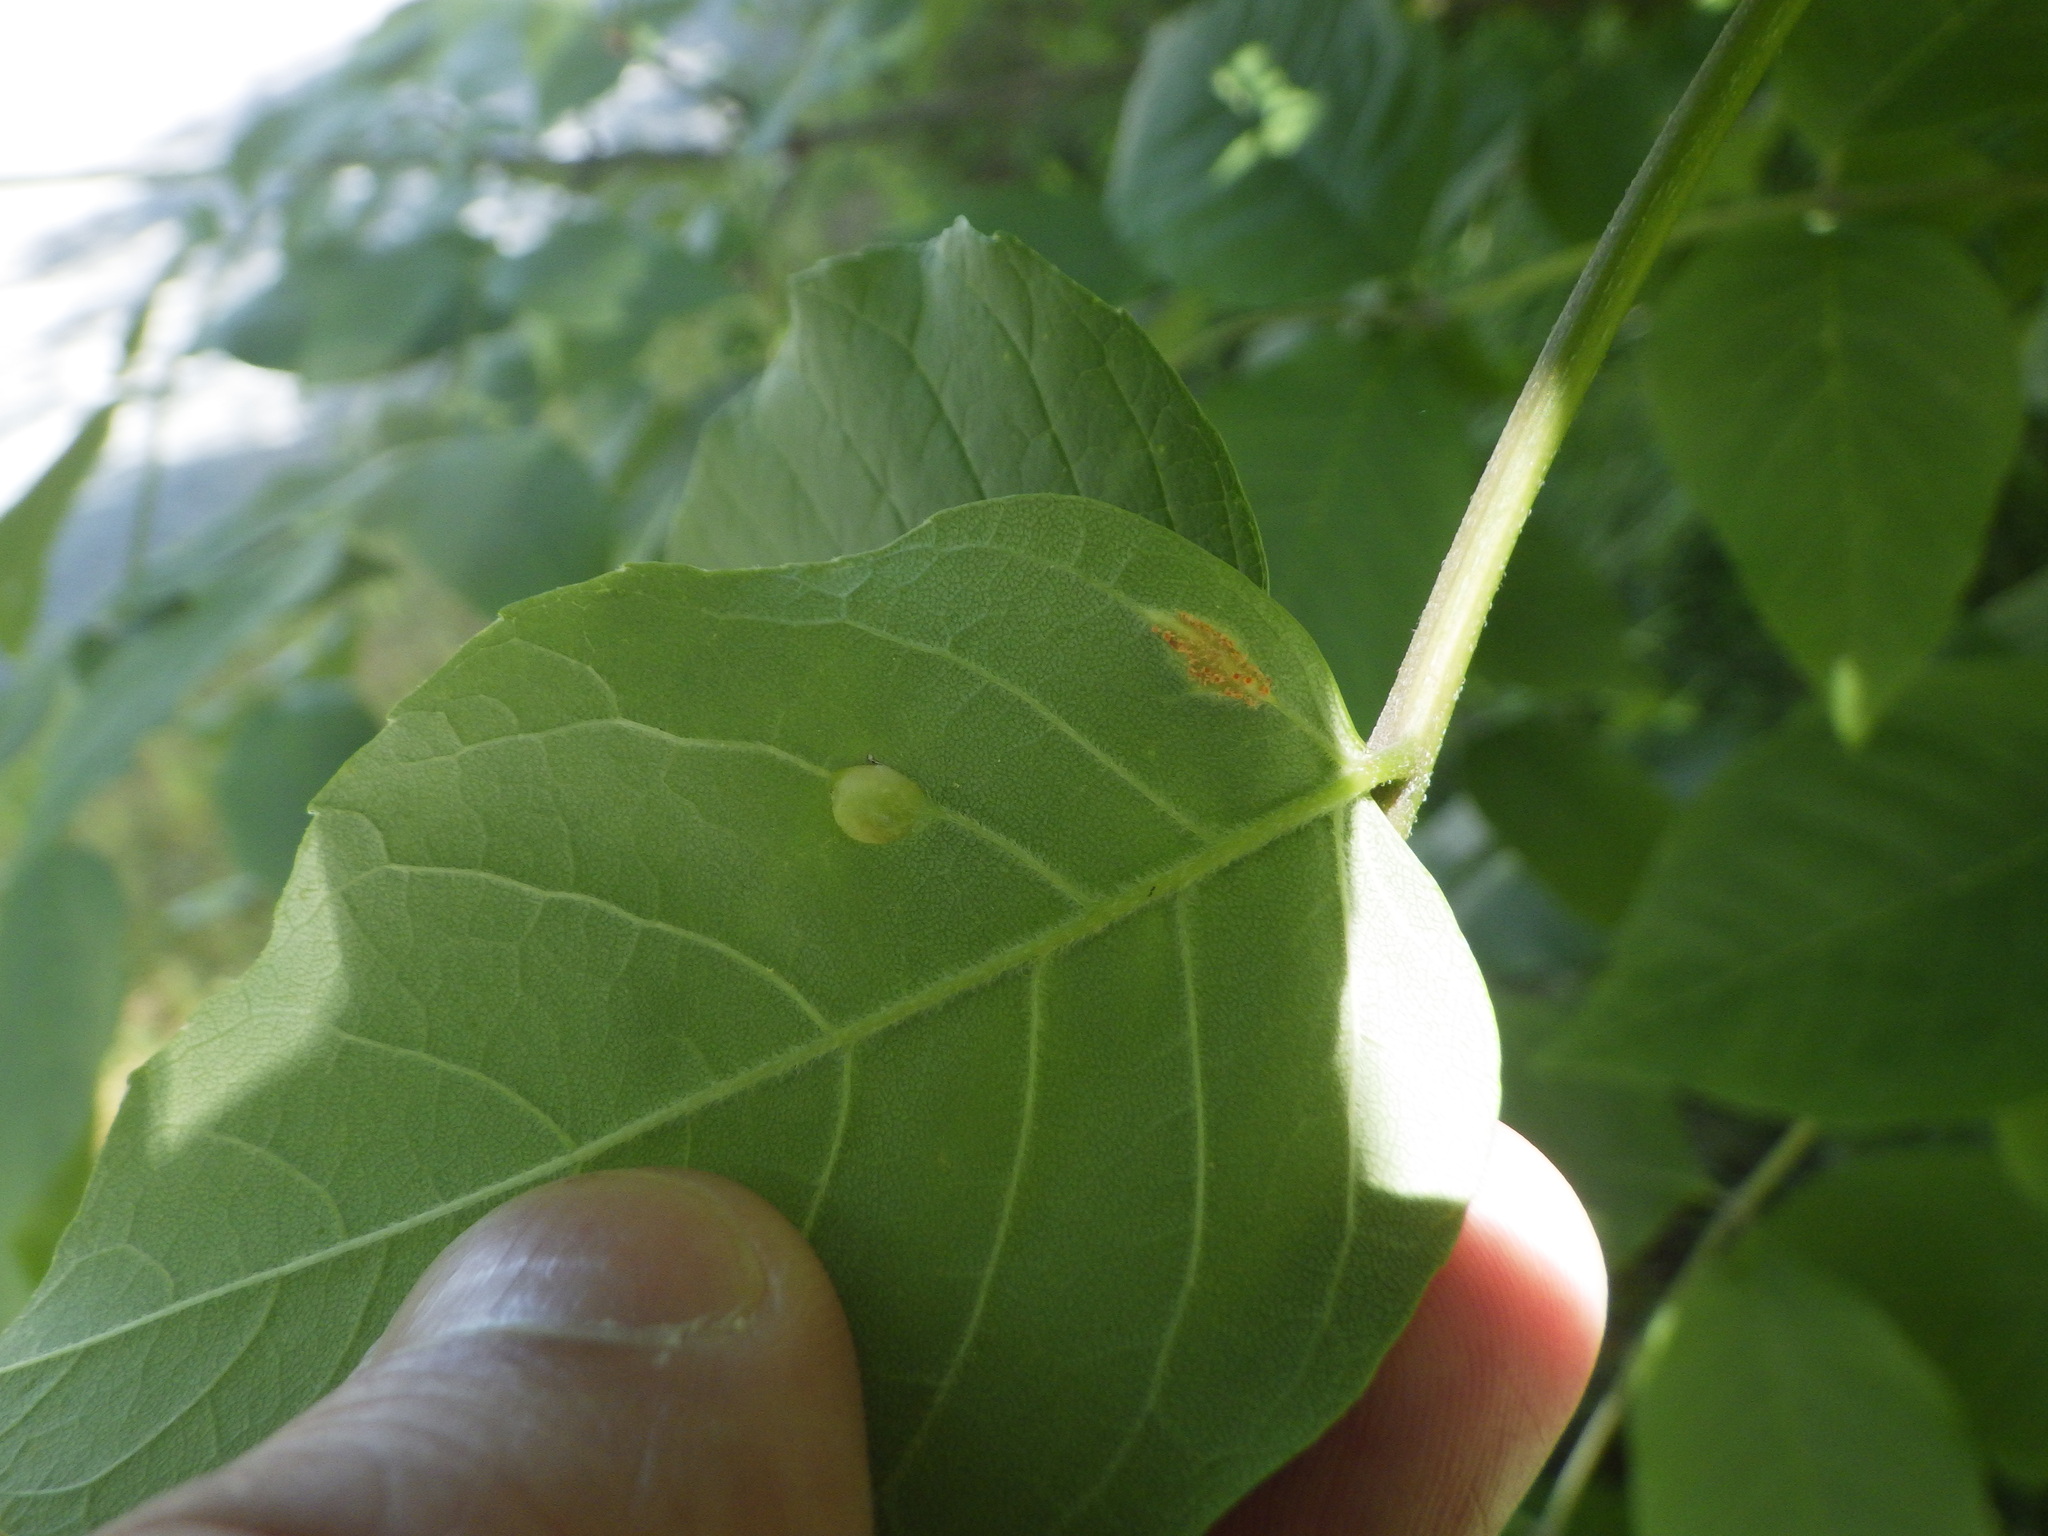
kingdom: Animalia
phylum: Arthropoda
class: Insecta
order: Diptera
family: Cecidomyiidae
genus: Dasineura
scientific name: Dasineura pellex
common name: Ash bullet gall midge
